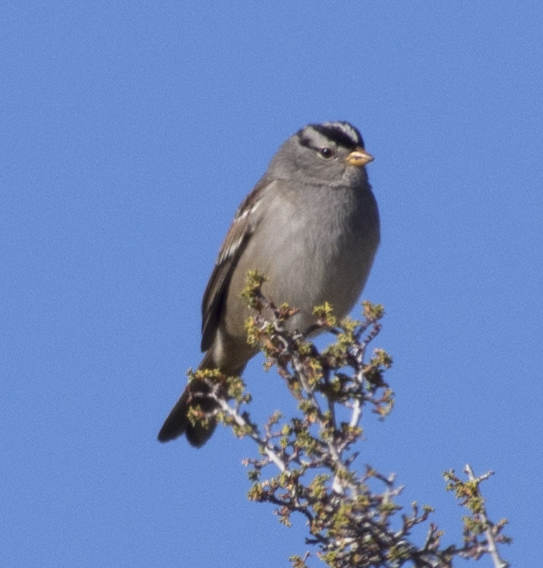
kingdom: Animalia
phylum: Chordata
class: Aves
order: Passeriformes
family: Passerellidae
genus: Zonotrichia
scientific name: Zonotrichia leucophrys
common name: White-crowned sparrow
